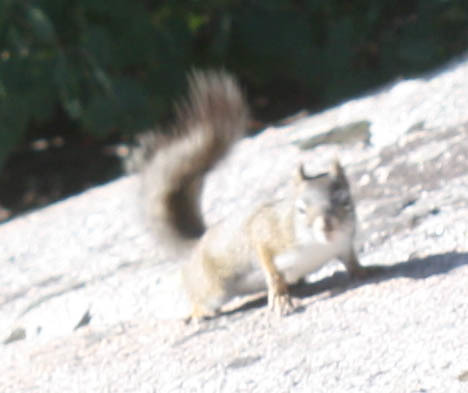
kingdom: Animalia
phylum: Chordata
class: Mammalia
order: Rodentia
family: Sciuridae
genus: Tamiasciurus
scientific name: Tamiasciurus hudsonicus
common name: Red squirrel
